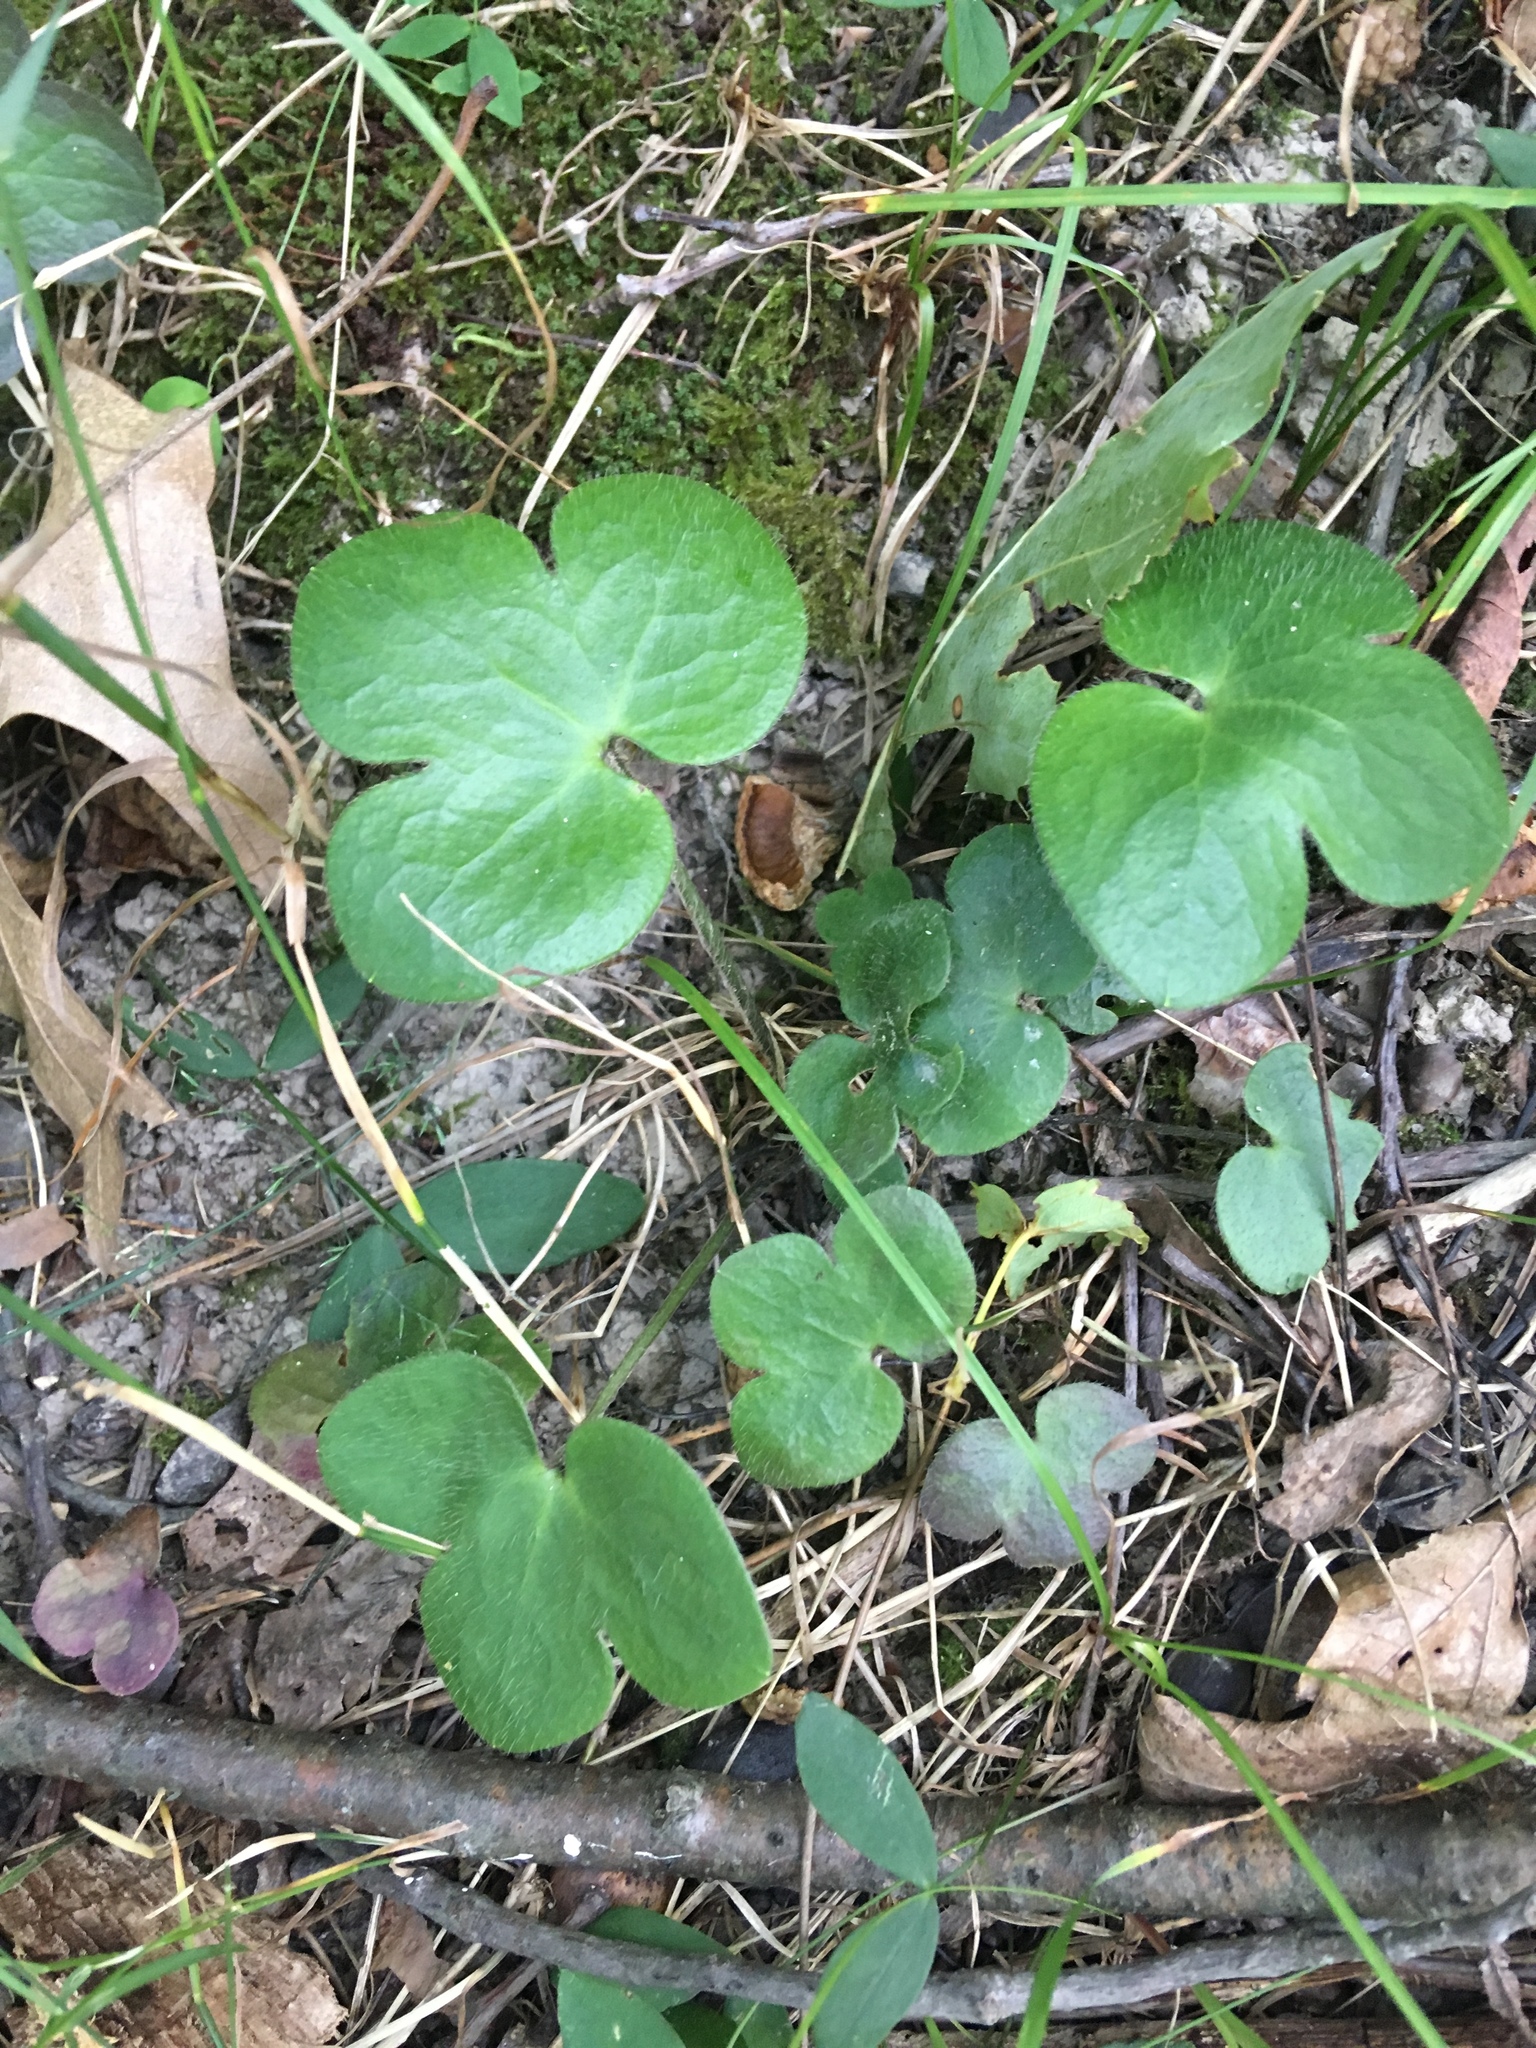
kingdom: Plantae
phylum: Tracheophyta
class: Magnoliopsida
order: Ranunculales
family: Ranunculaceae
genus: Hepatica
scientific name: Hepatica americana
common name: American hepatica
